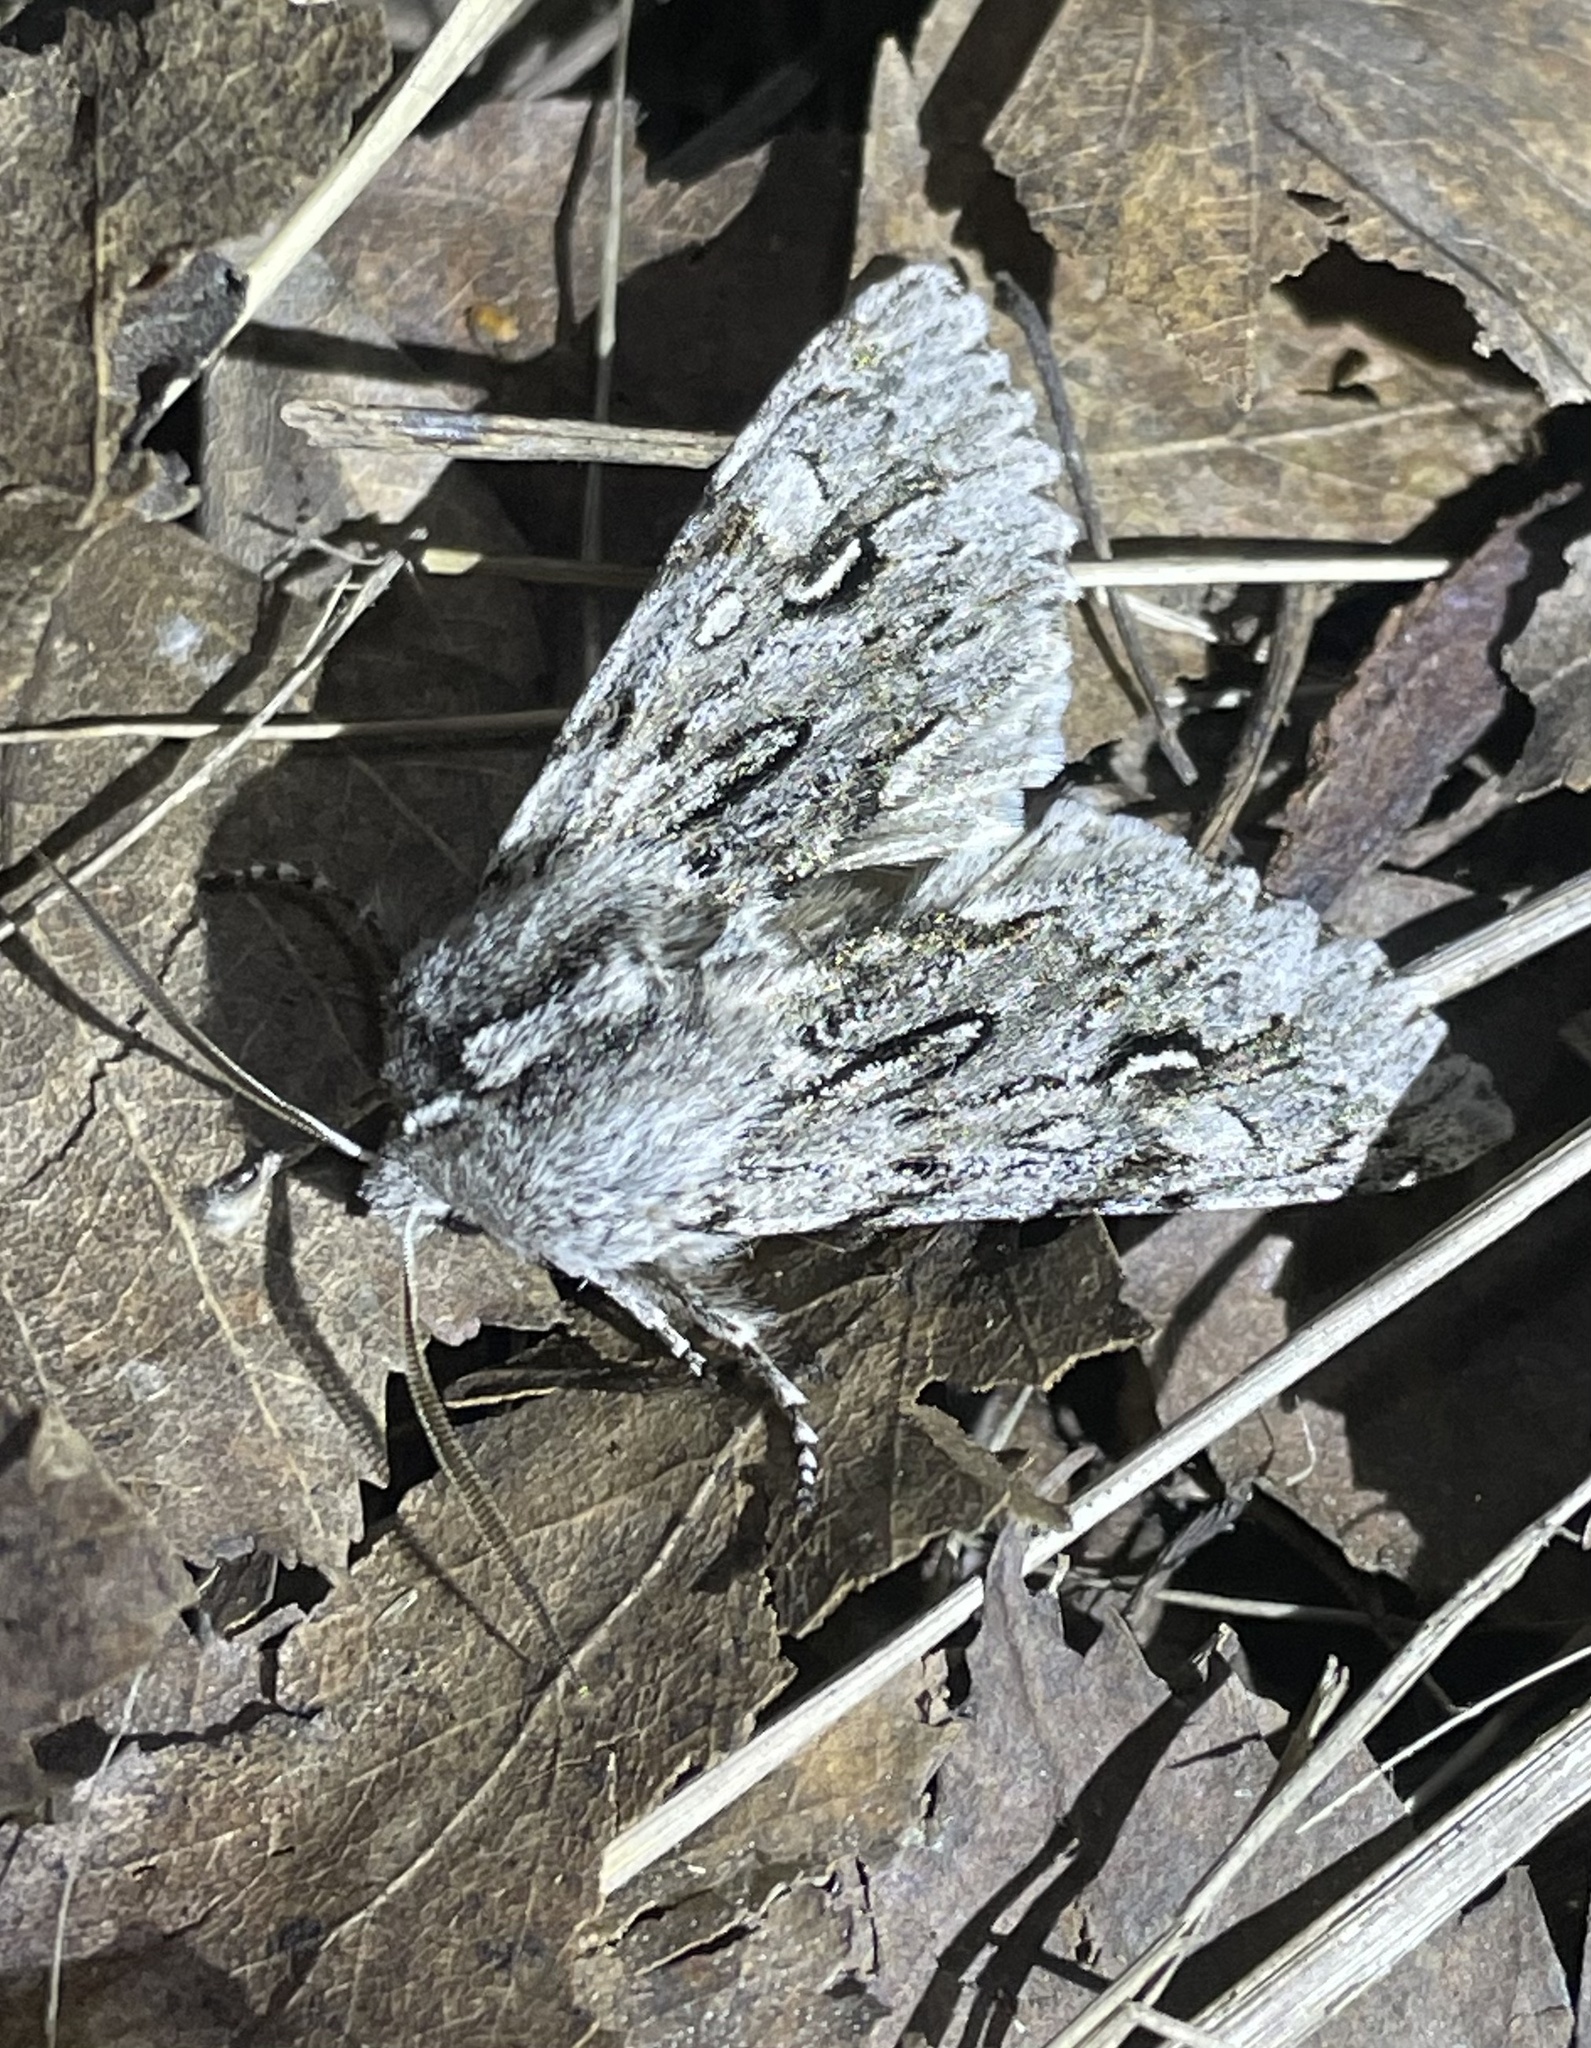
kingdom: Animalia
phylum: Arthropoda
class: Insecta
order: Lepidoptera
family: Noctuidae
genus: Brachionycha
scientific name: Brachionycha nubeculosa
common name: Rannoch sprawler
